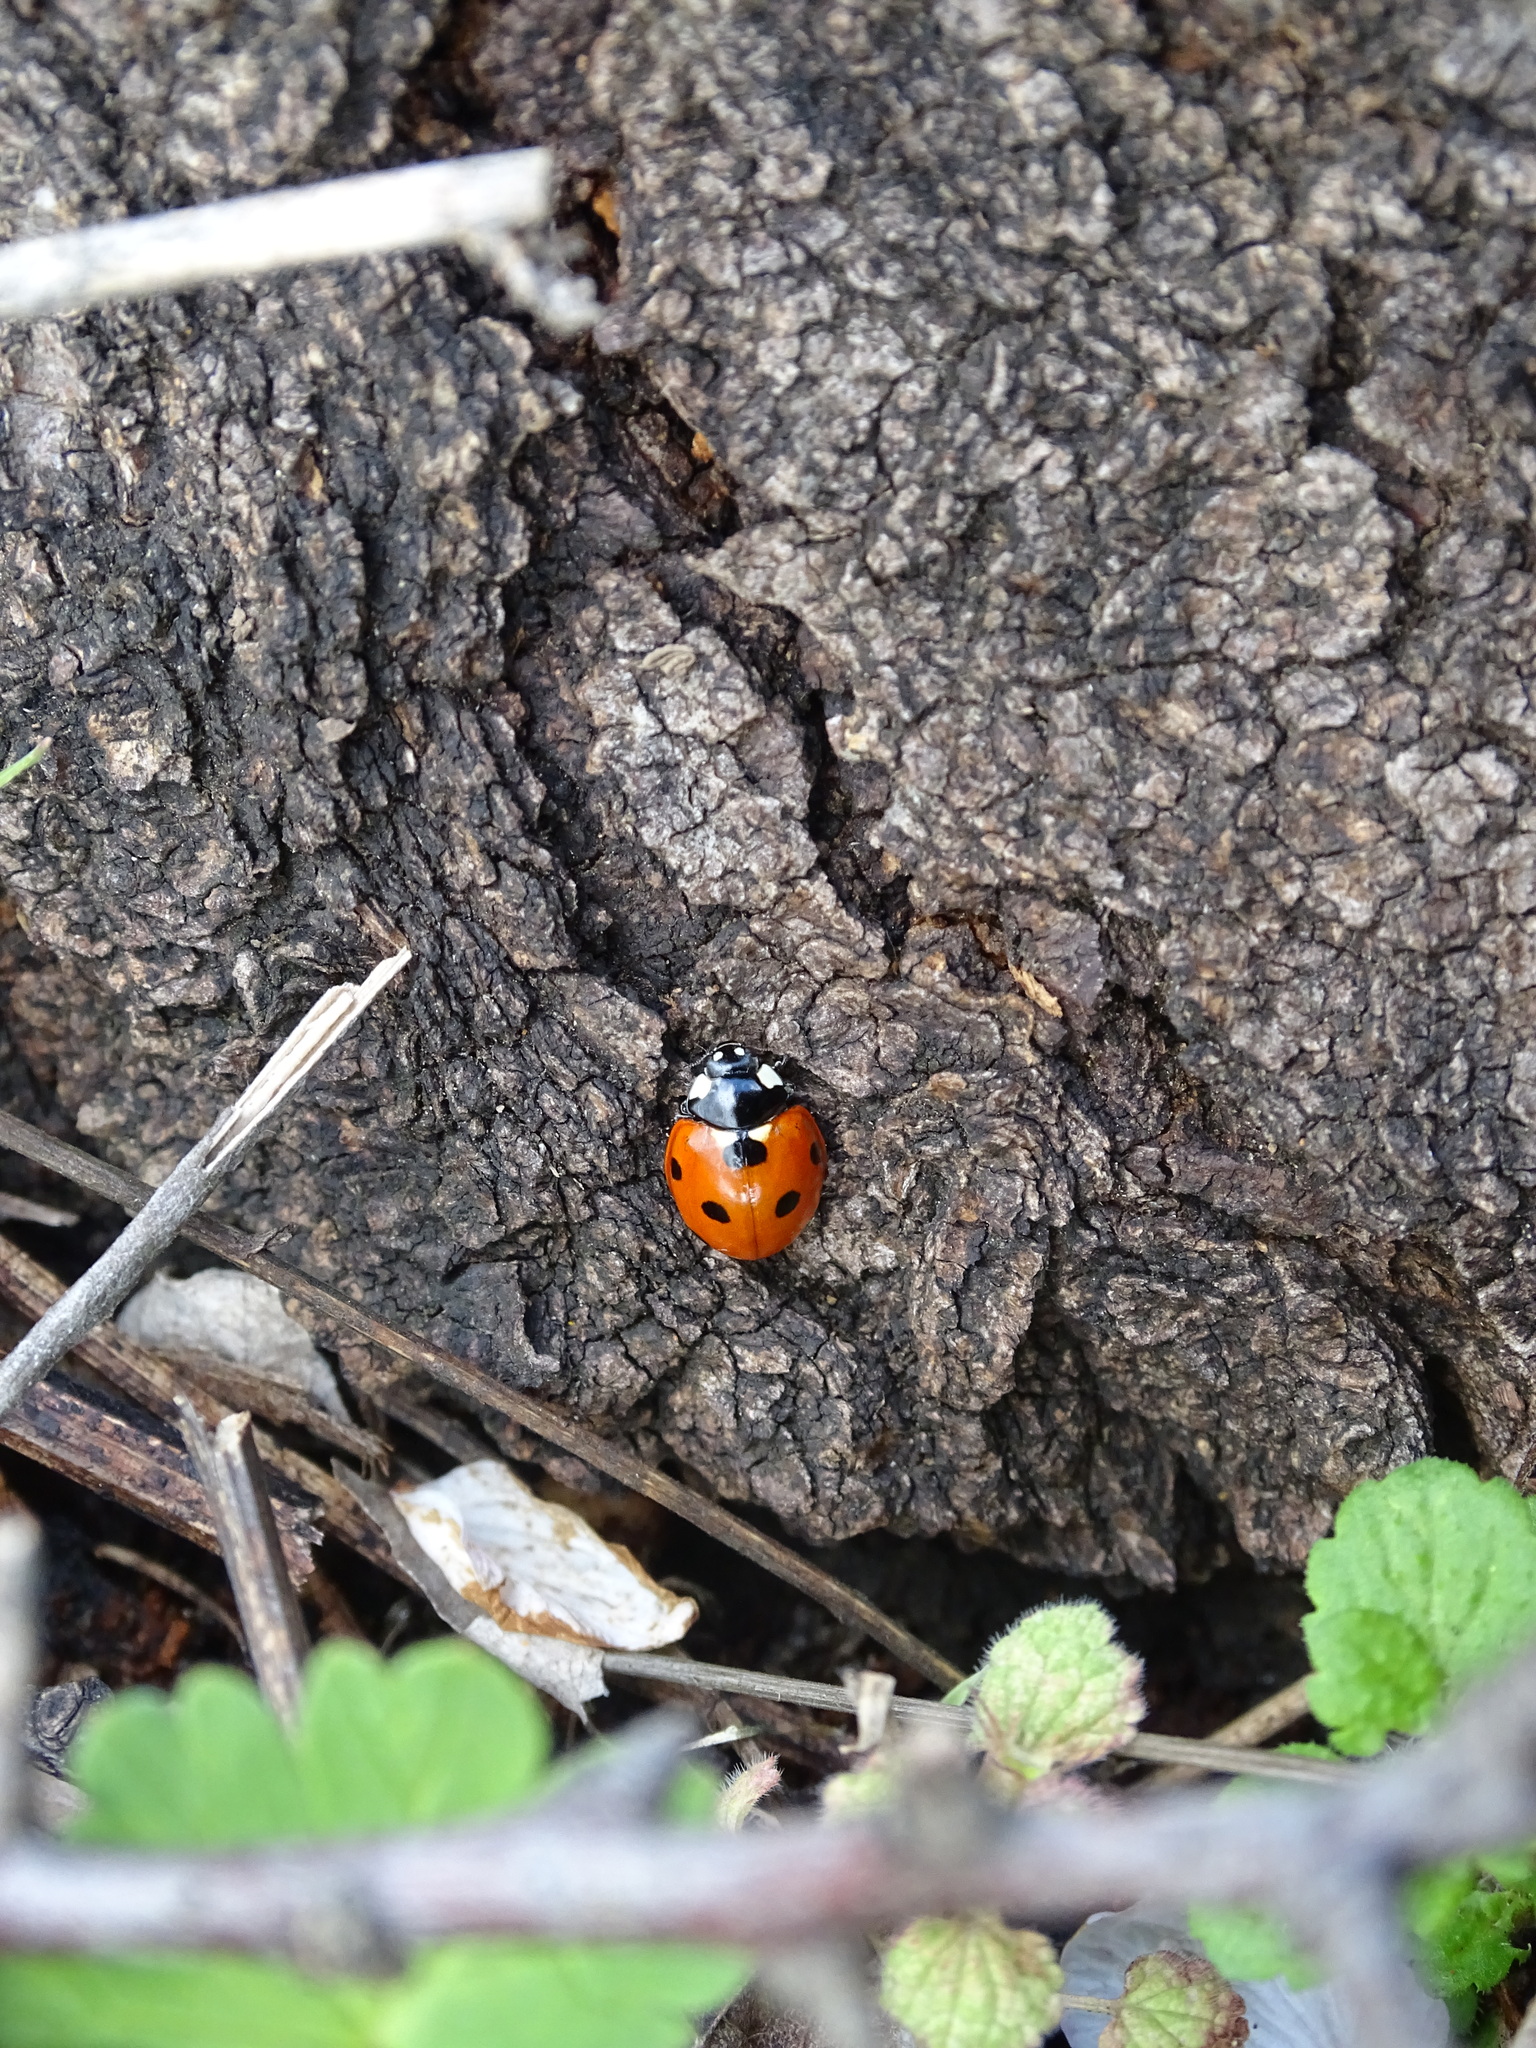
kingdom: Animalia
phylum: Arthropoda
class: Insecta
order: Coleoptera
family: Coccinellidae
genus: Coccinella
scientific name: Coccinella septempunctata
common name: Sevenspotted lady beetle
